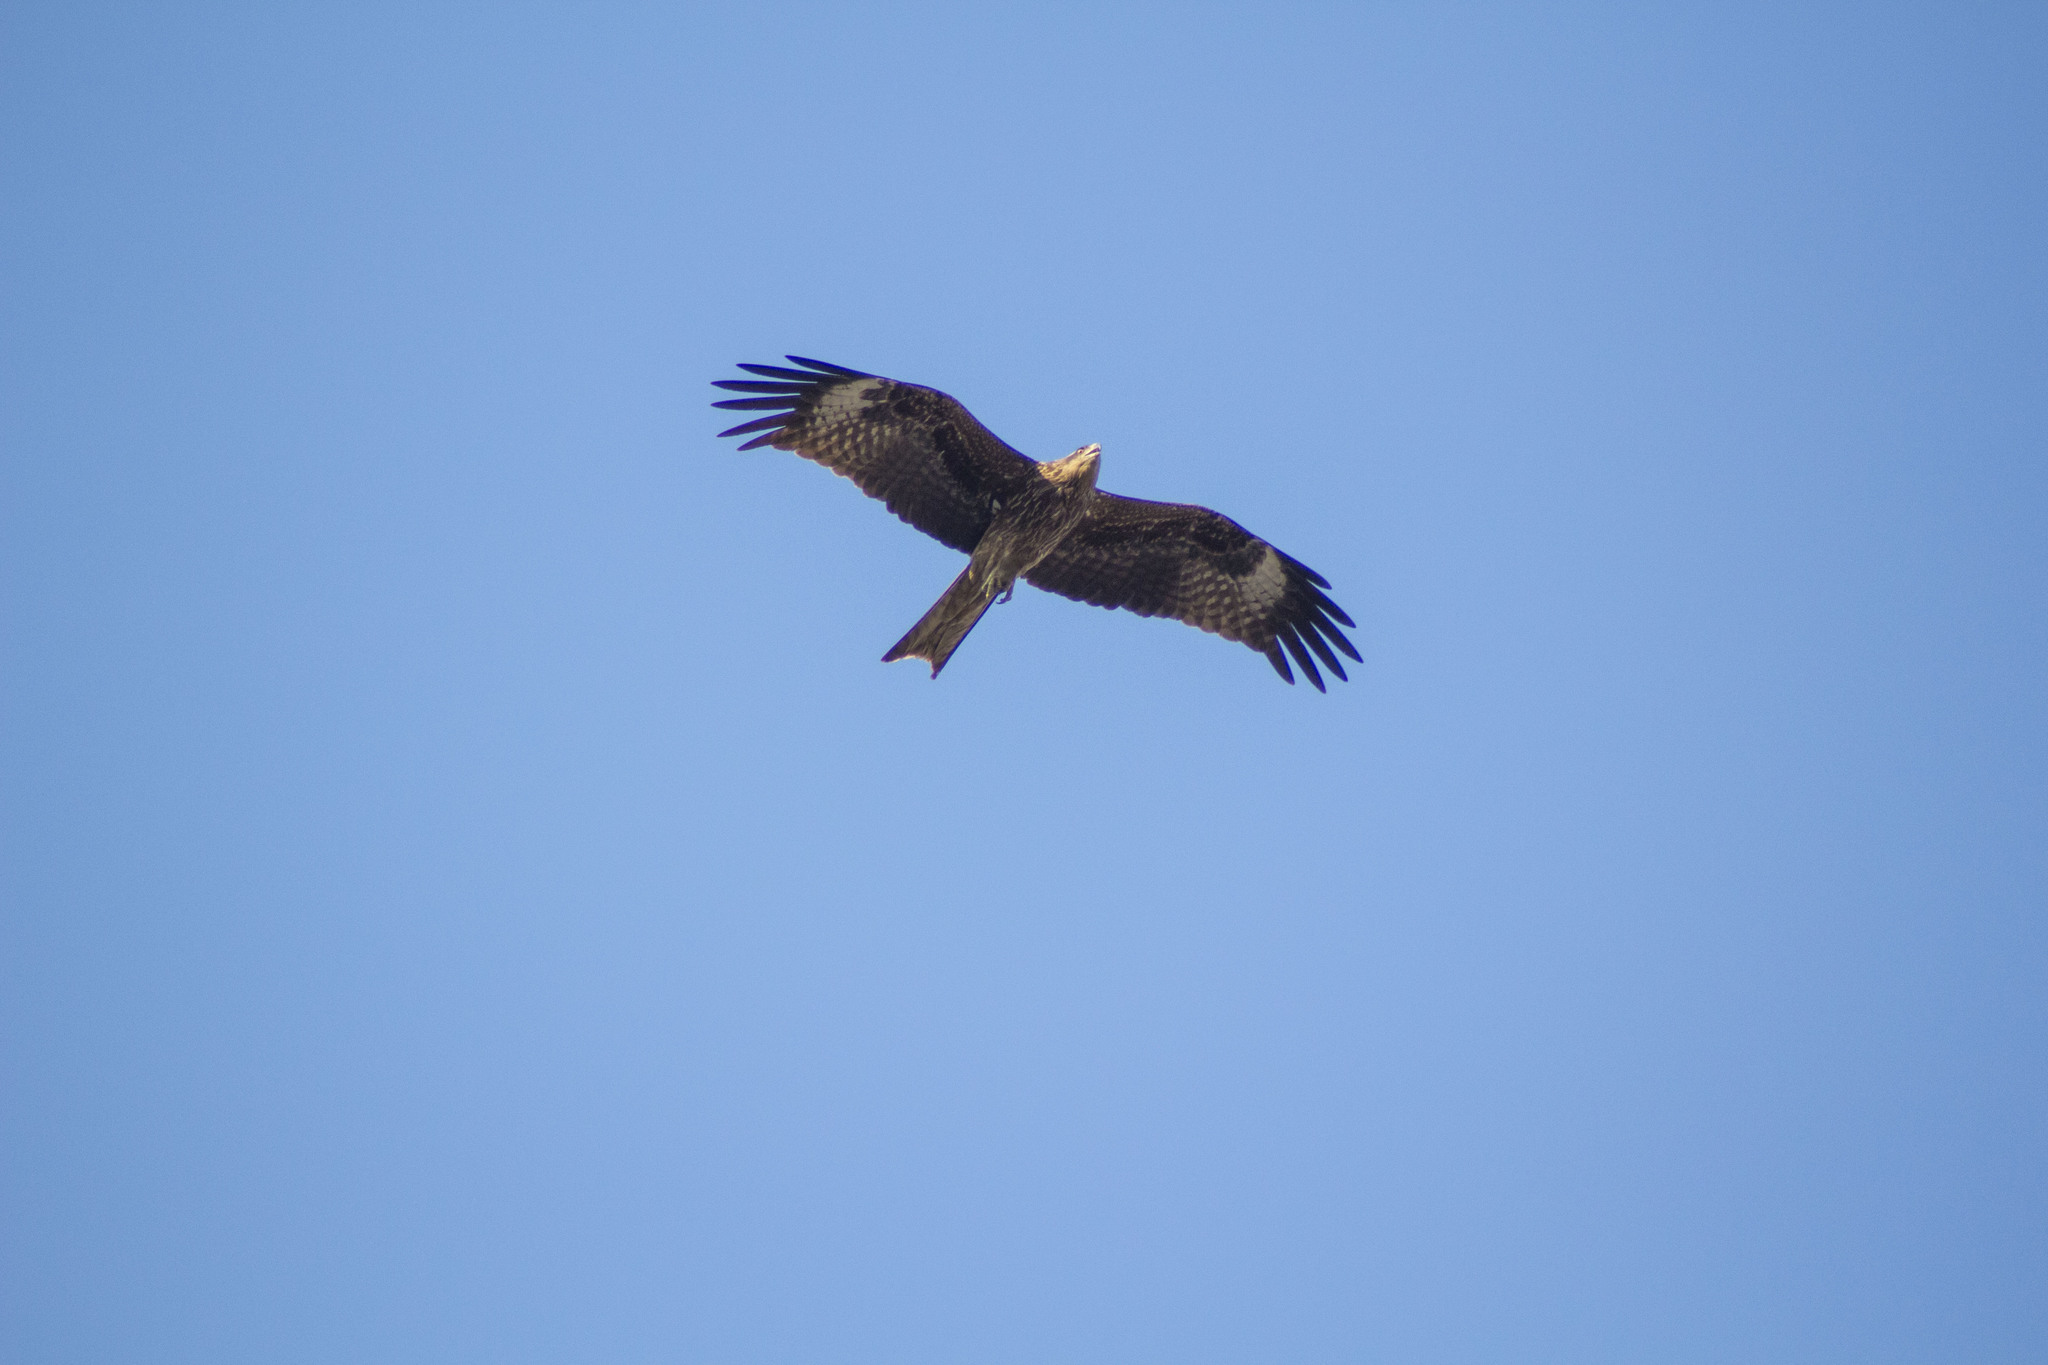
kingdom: Animalia
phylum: Chordata
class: Aves
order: Accipitriformes
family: Accipitridae
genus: Milvus
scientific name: Milvus migrans
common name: Black kite
